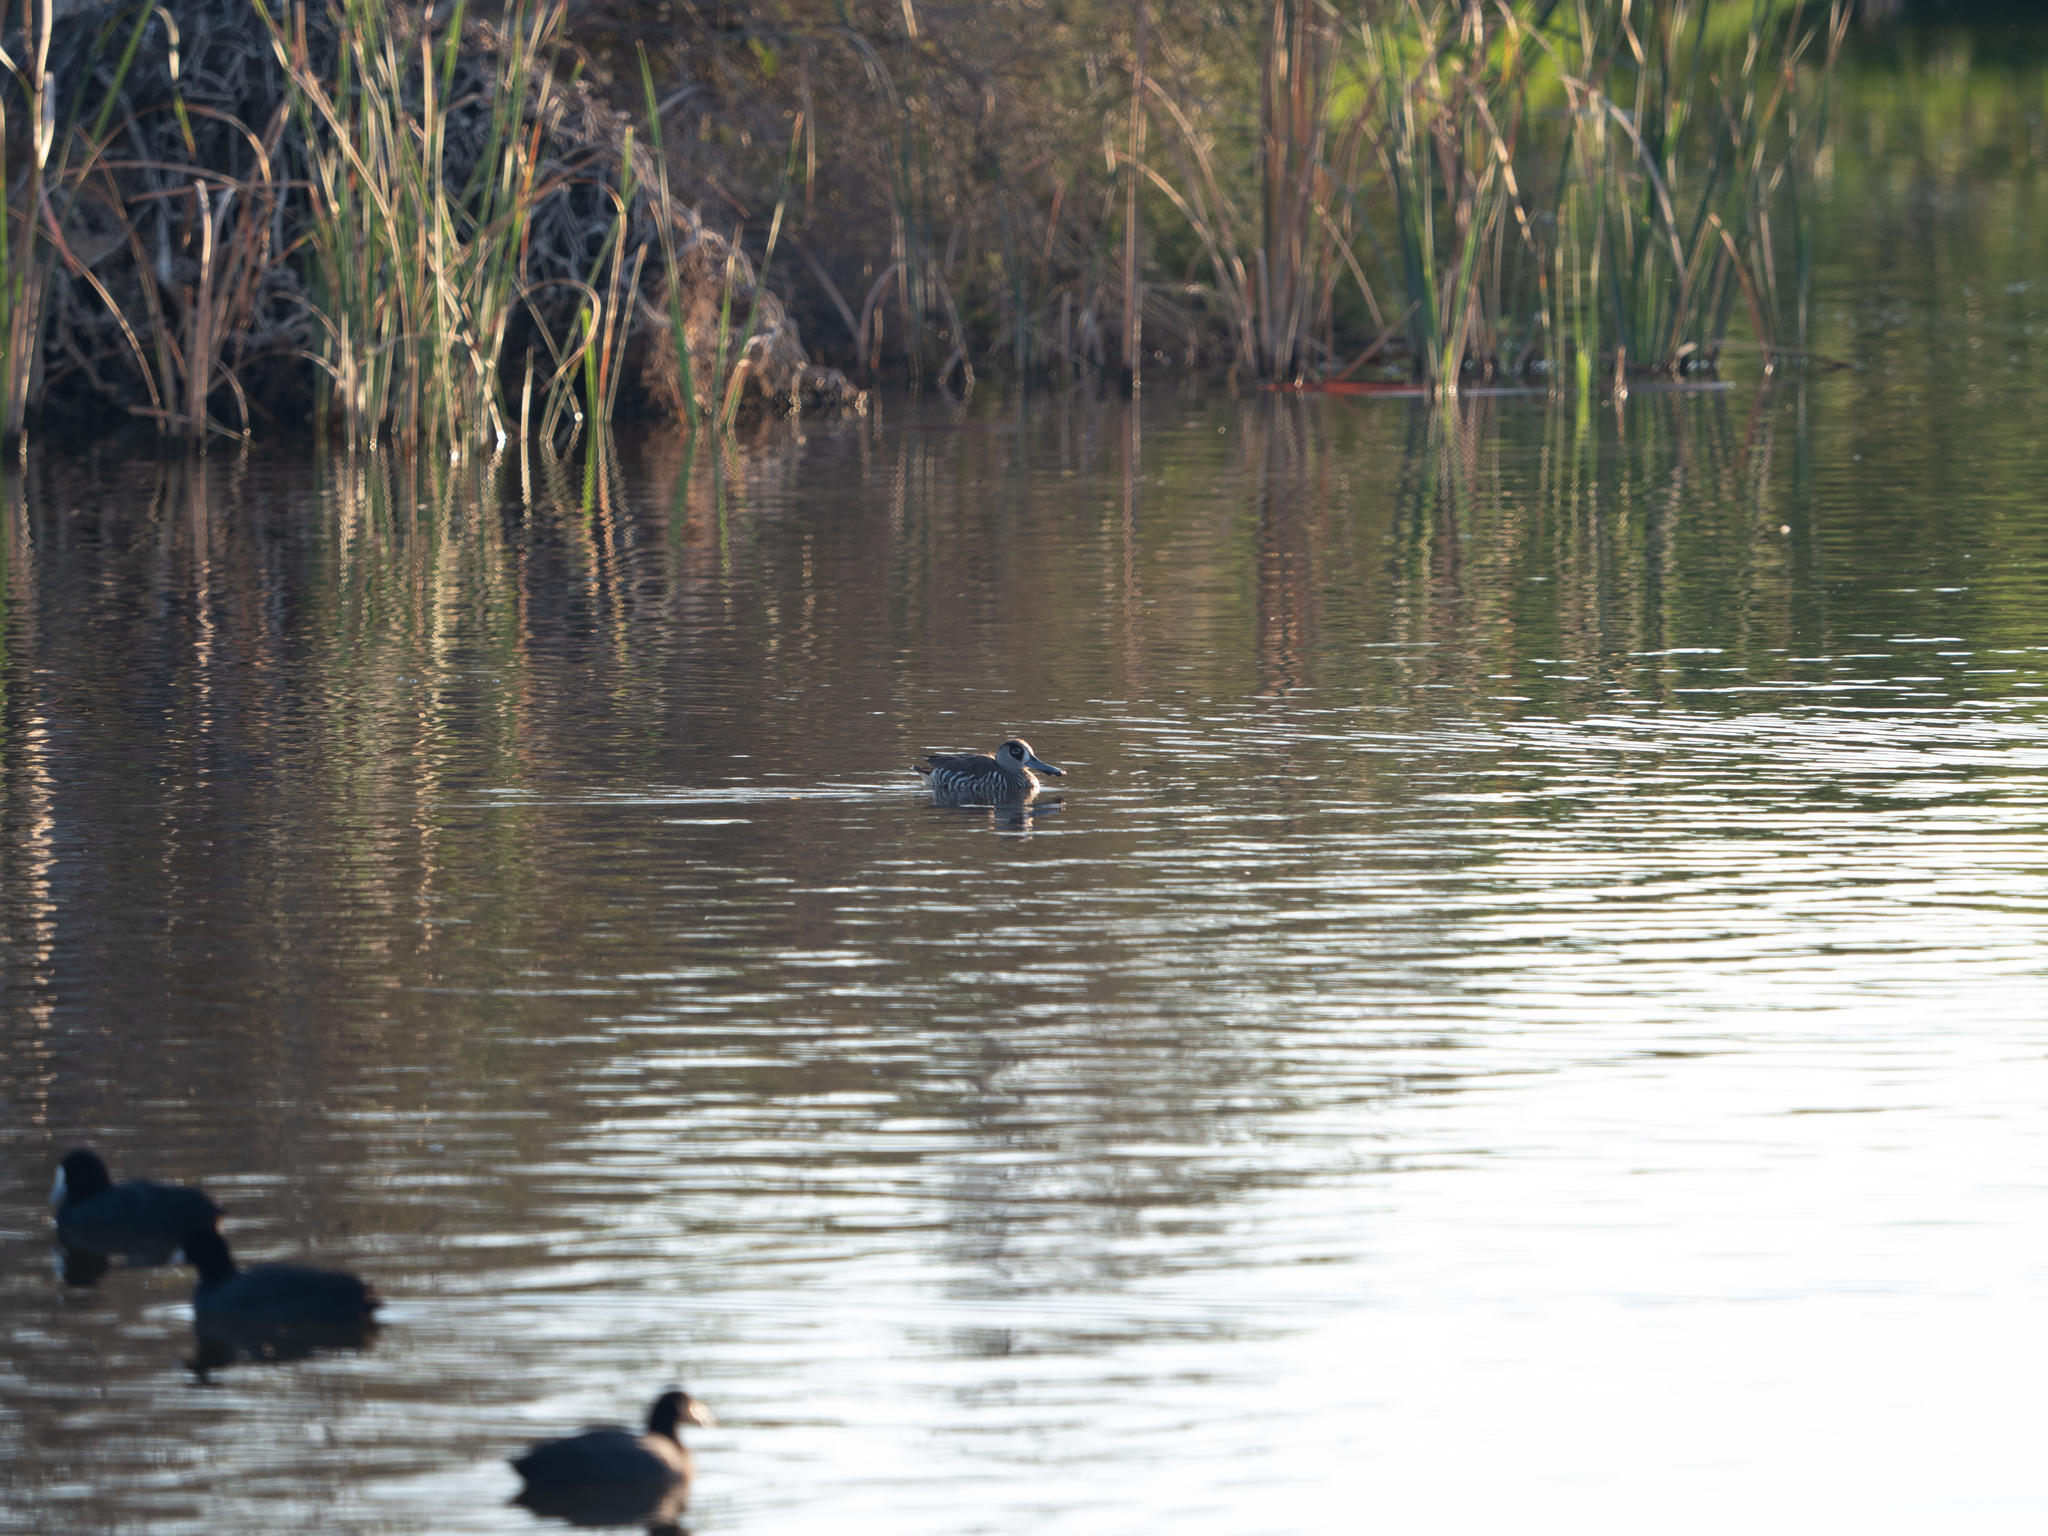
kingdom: Animalia
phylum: Chordata
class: Aves
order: Anseriformes
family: Anatidae
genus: Malacorhynchus
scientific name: Malacorhynchus membranaceus
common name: Pink-eared duck
